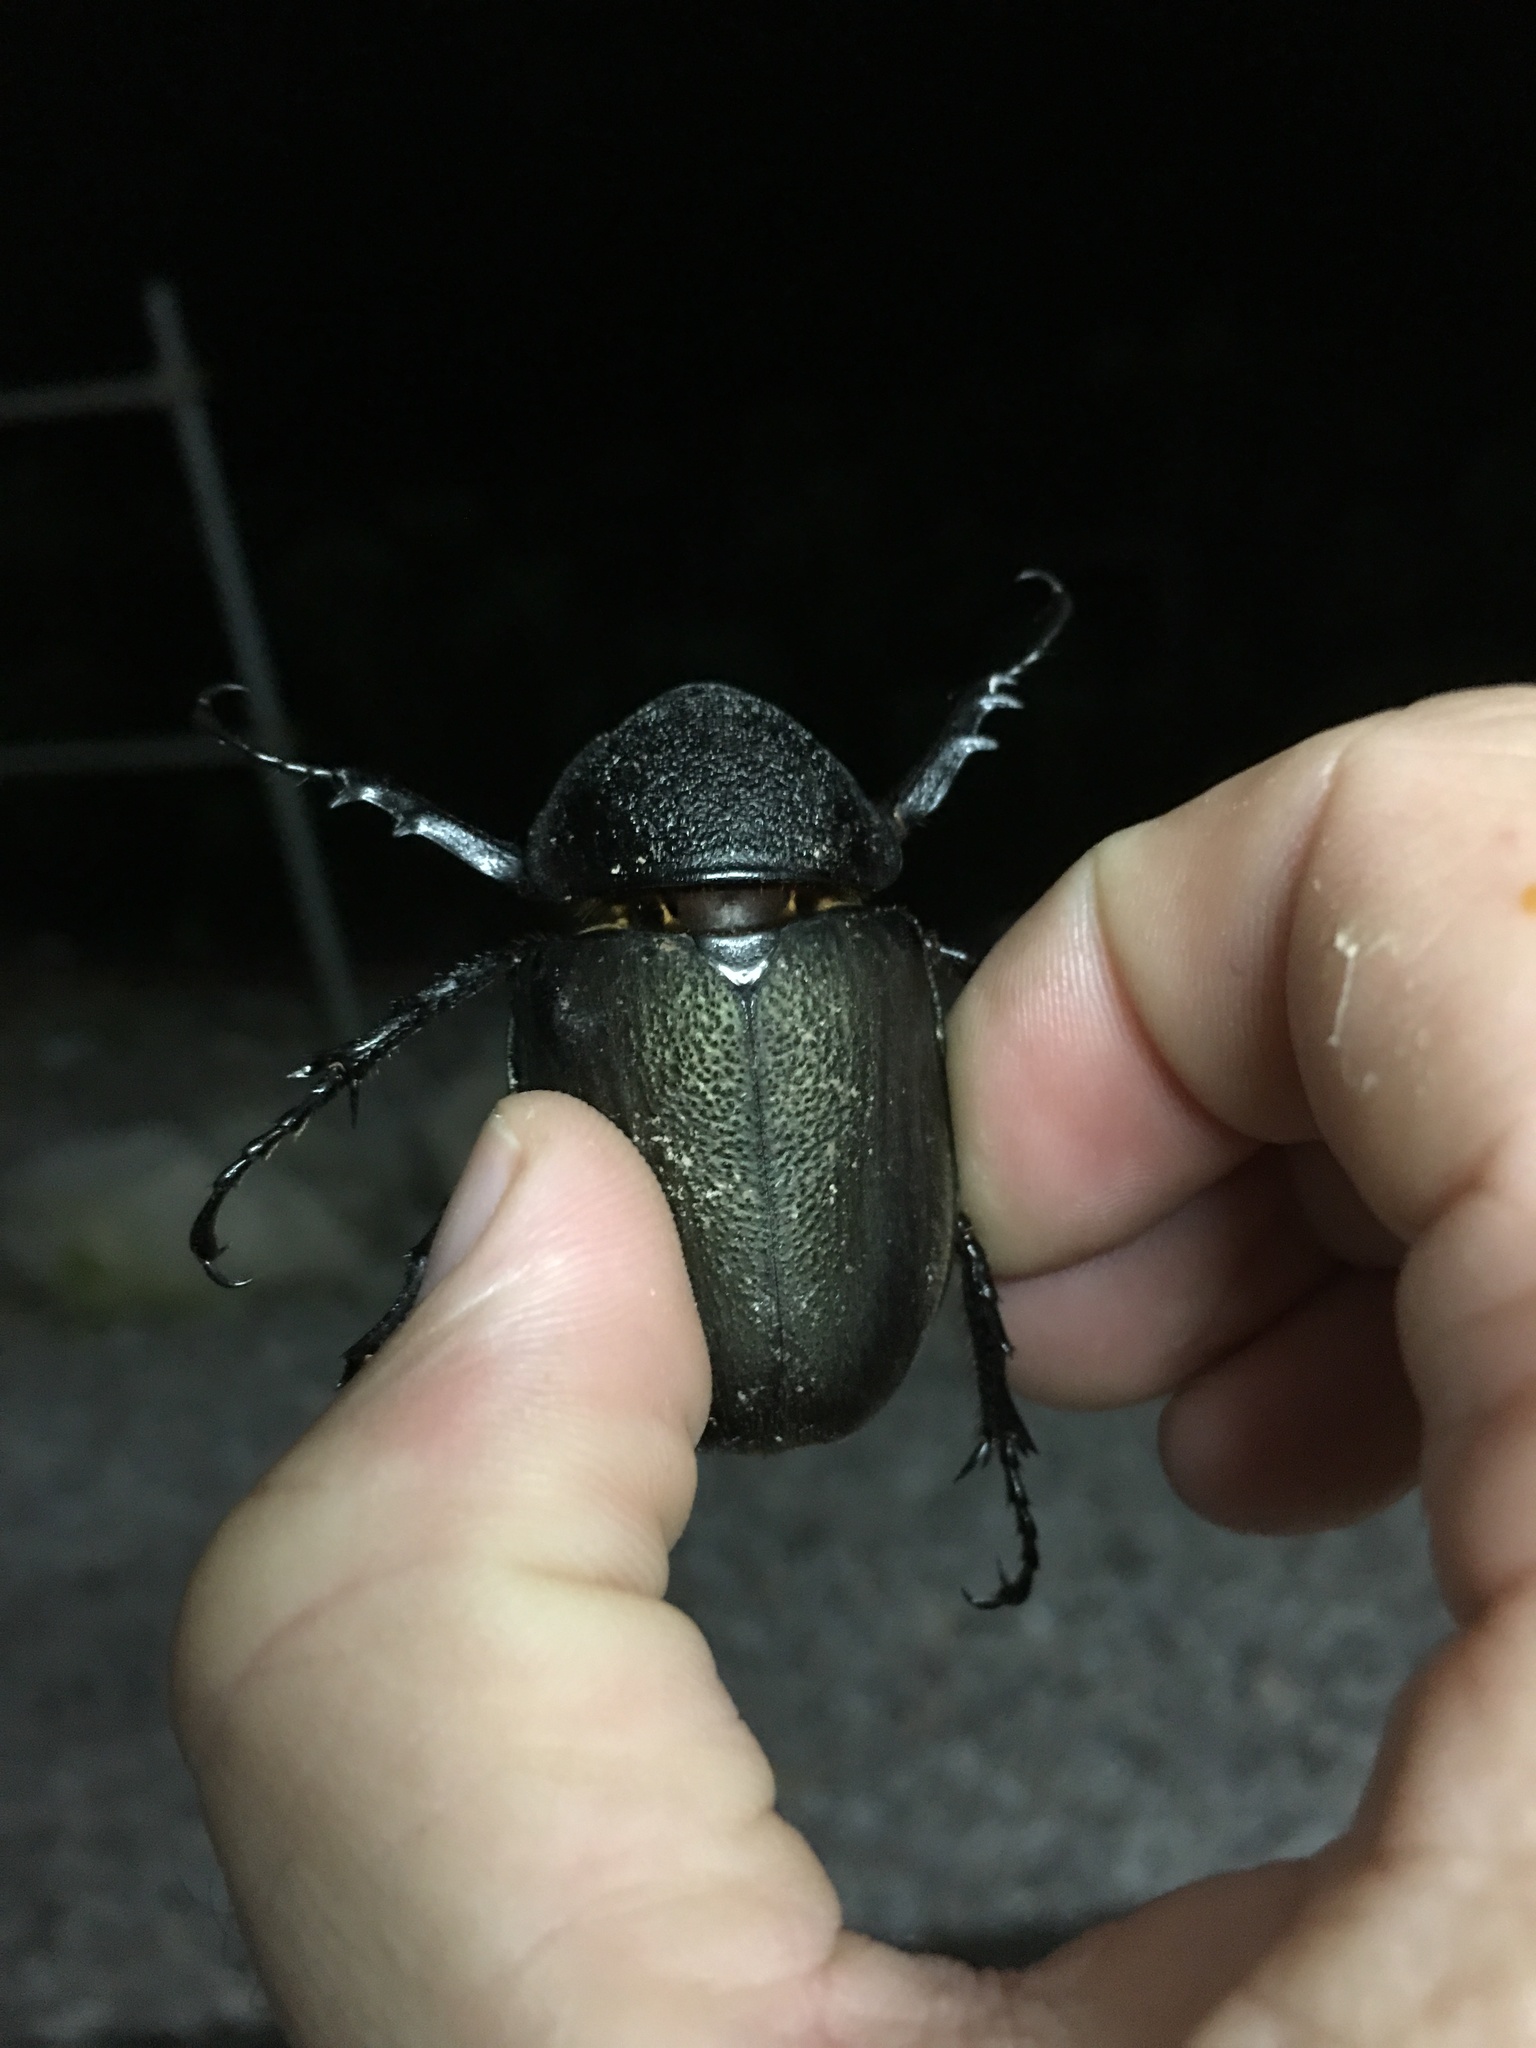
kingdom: Animalia
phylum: Arthropoda
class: Insecta
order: Coleoptera
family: Scarabaeidae
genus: Chalcosoma
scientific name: Chalcosoma atlas
